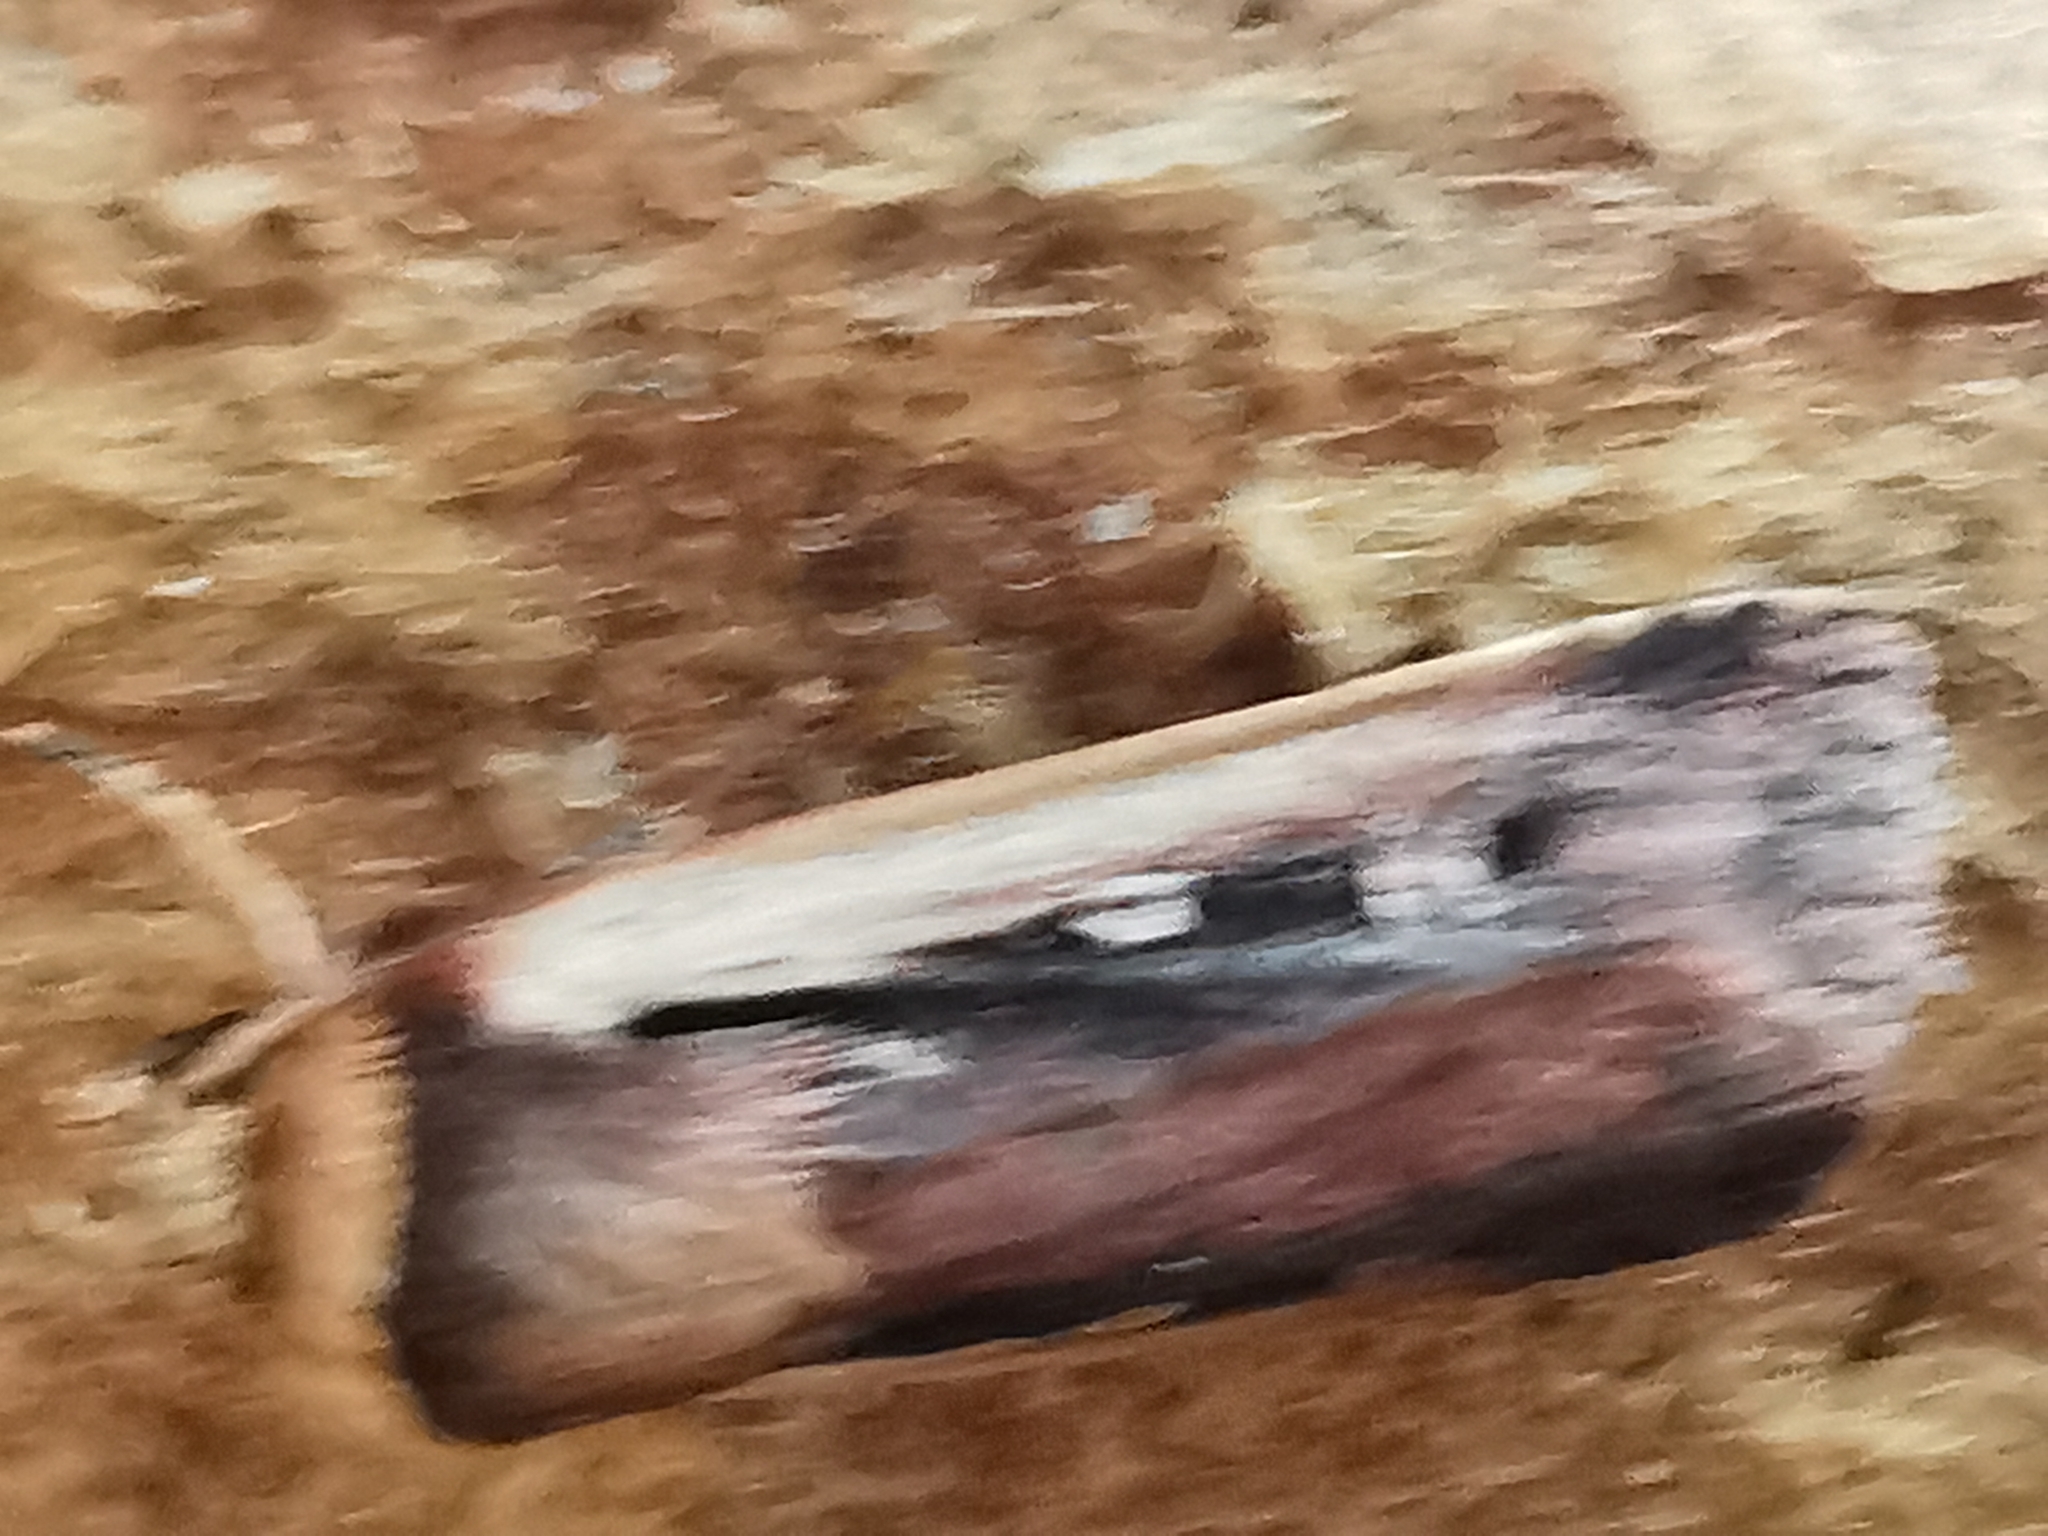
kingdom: Animalia
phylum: Arthropoda
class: Insecta
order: Lepidoptera
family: Noctuidae
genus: Ochropleura
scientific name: Ochropleura plecta
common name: Flame shoulder
